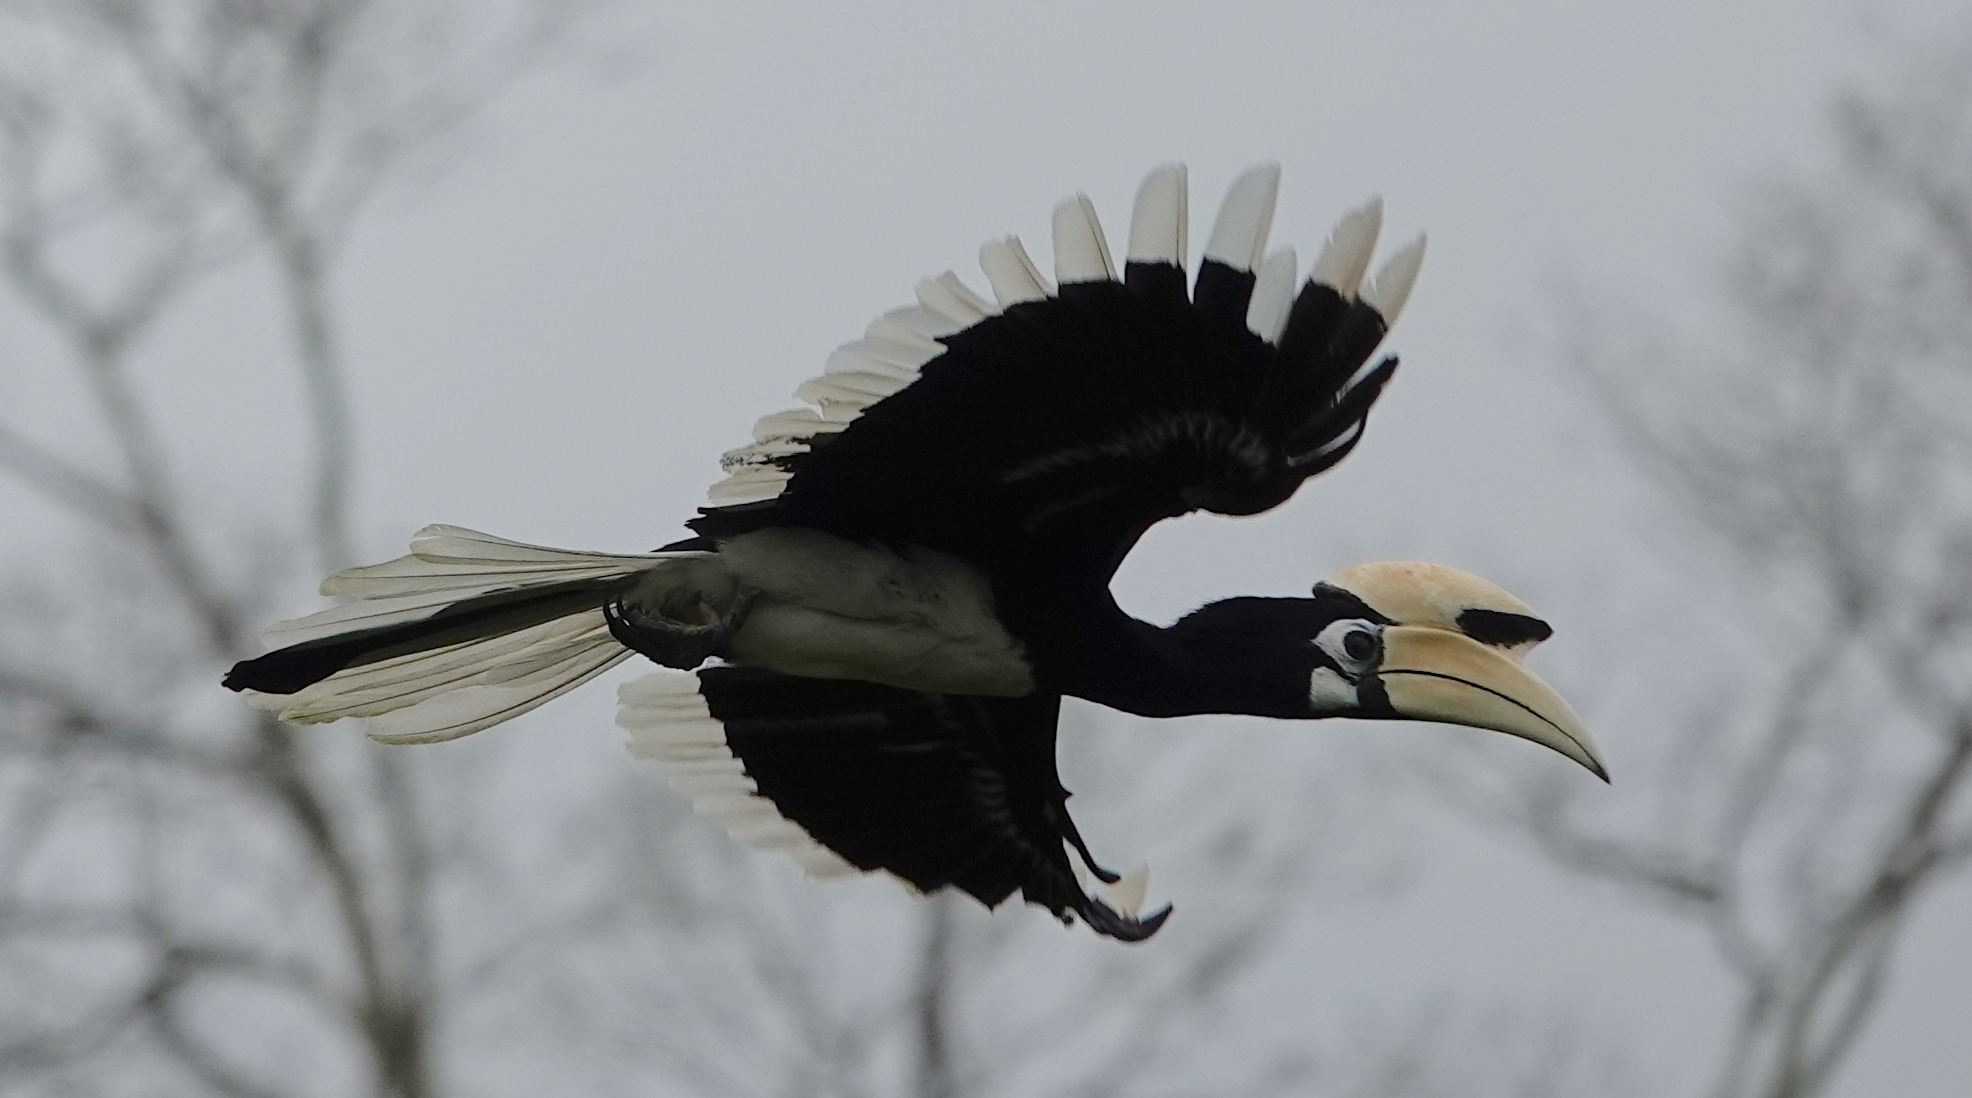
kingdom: Animalia
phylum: Chordata
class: Aves
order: Bucerotiformes
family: Bucerotidae
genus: Anthracoceros
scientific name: Anthracoceros albirostris
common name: Oriental pied-hornbill
